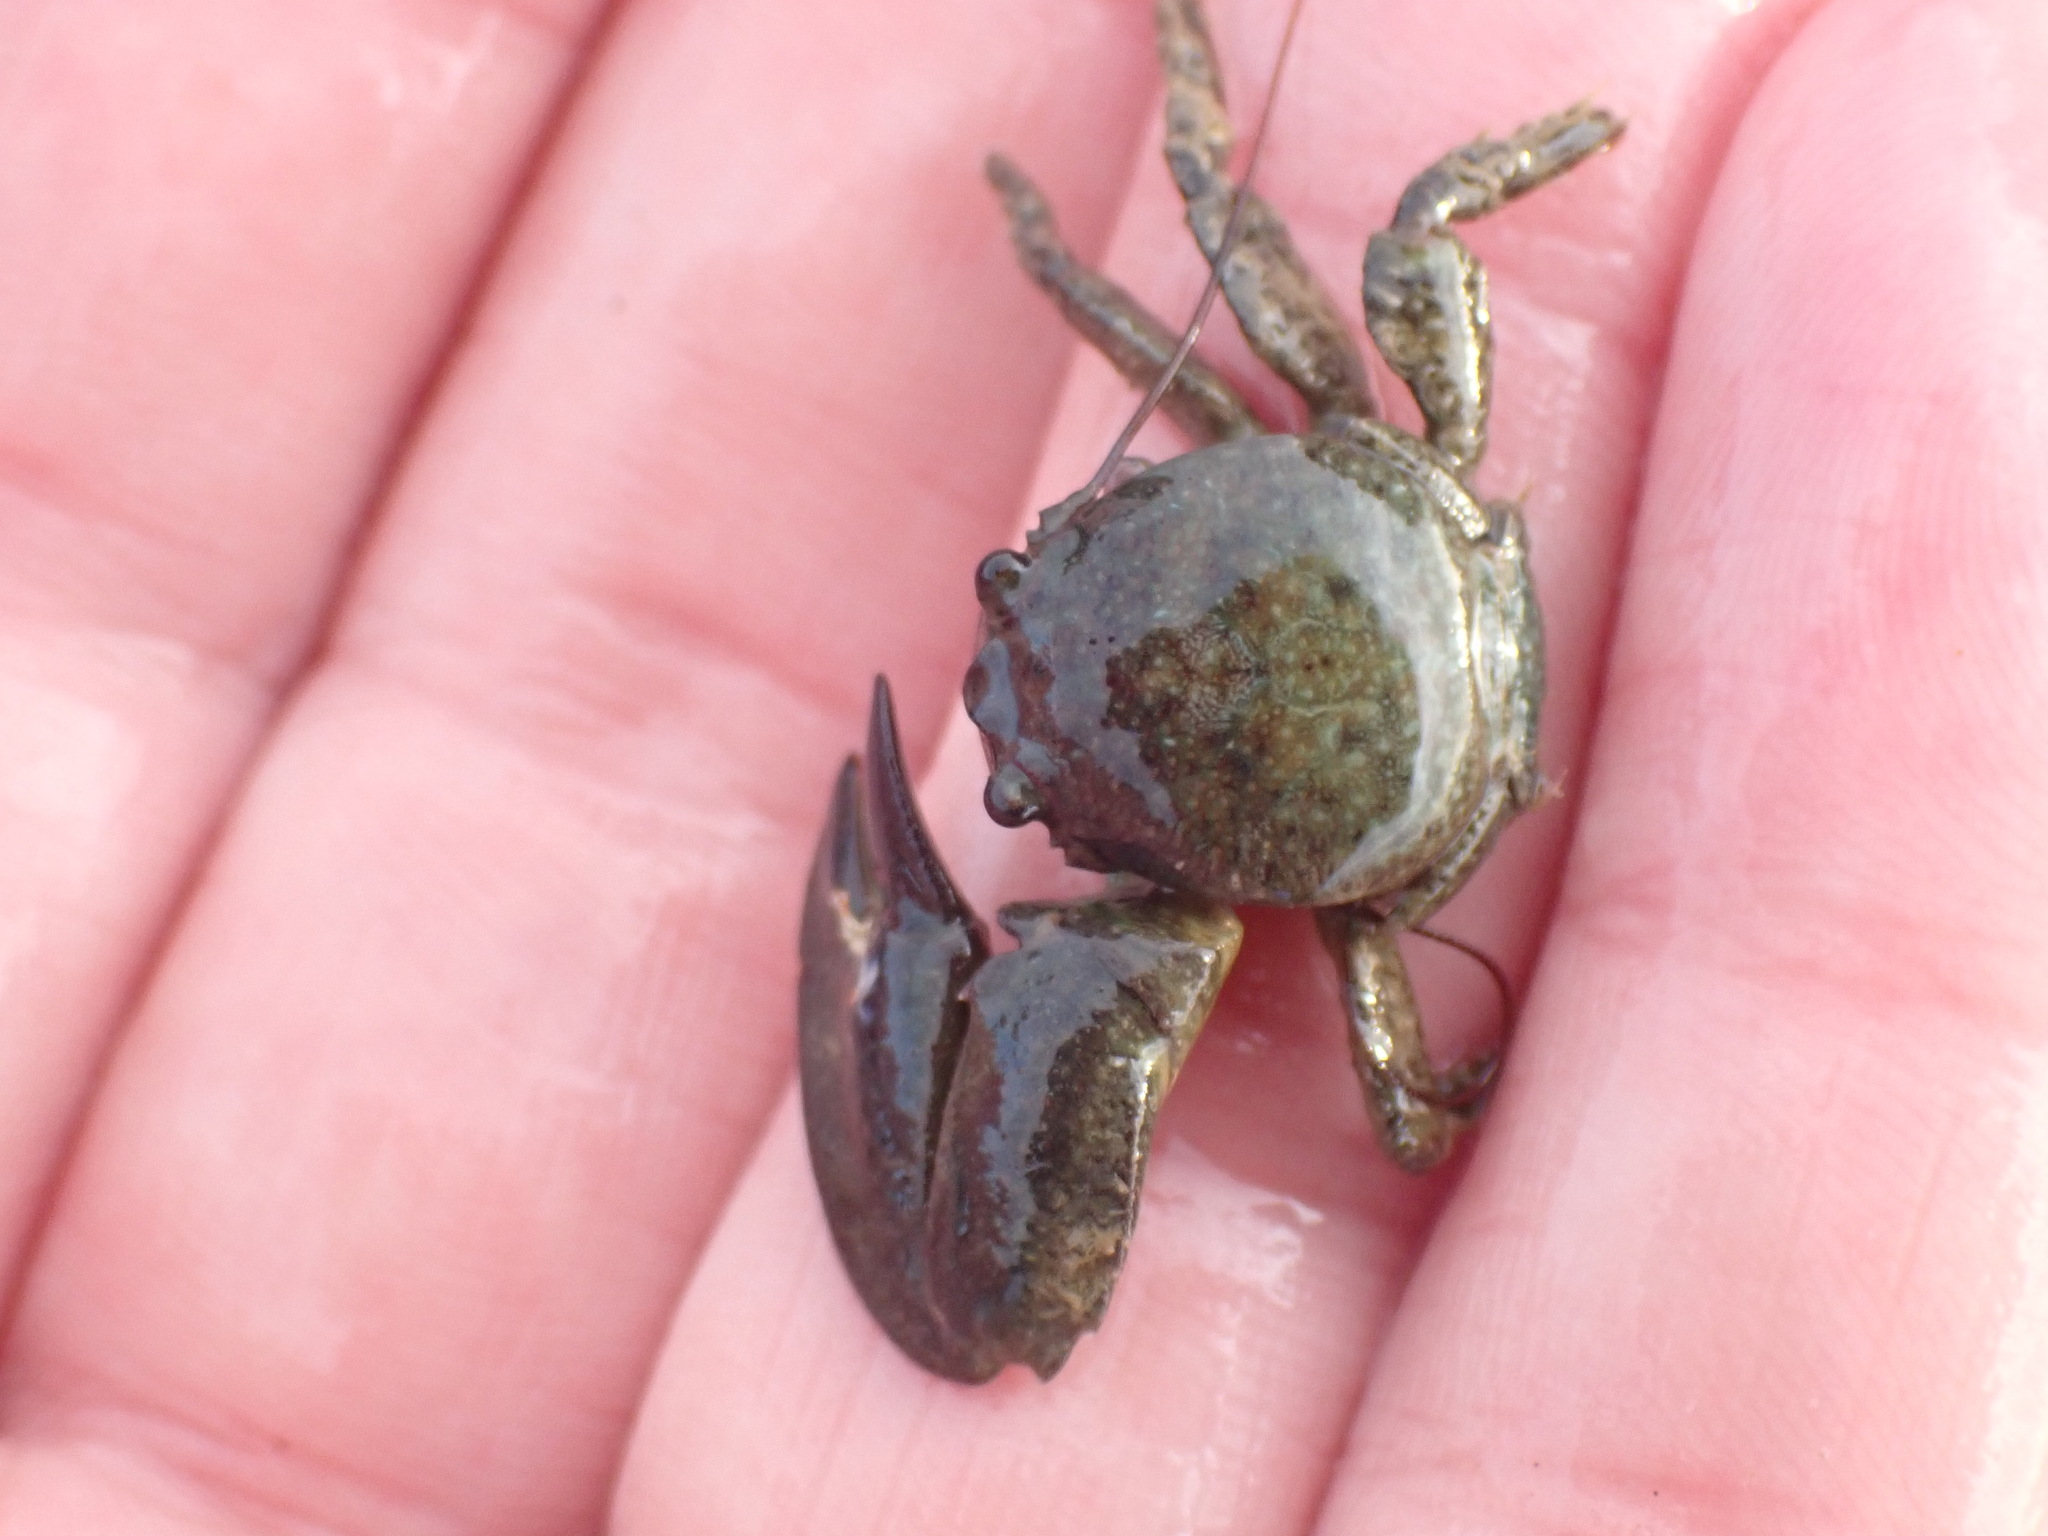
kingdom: Animalia
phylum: Arthropoda
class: Malacostraca
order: Decapoda
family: Porcellanidae
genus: Petrolisthes
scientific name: Petrolisthes elongatus
